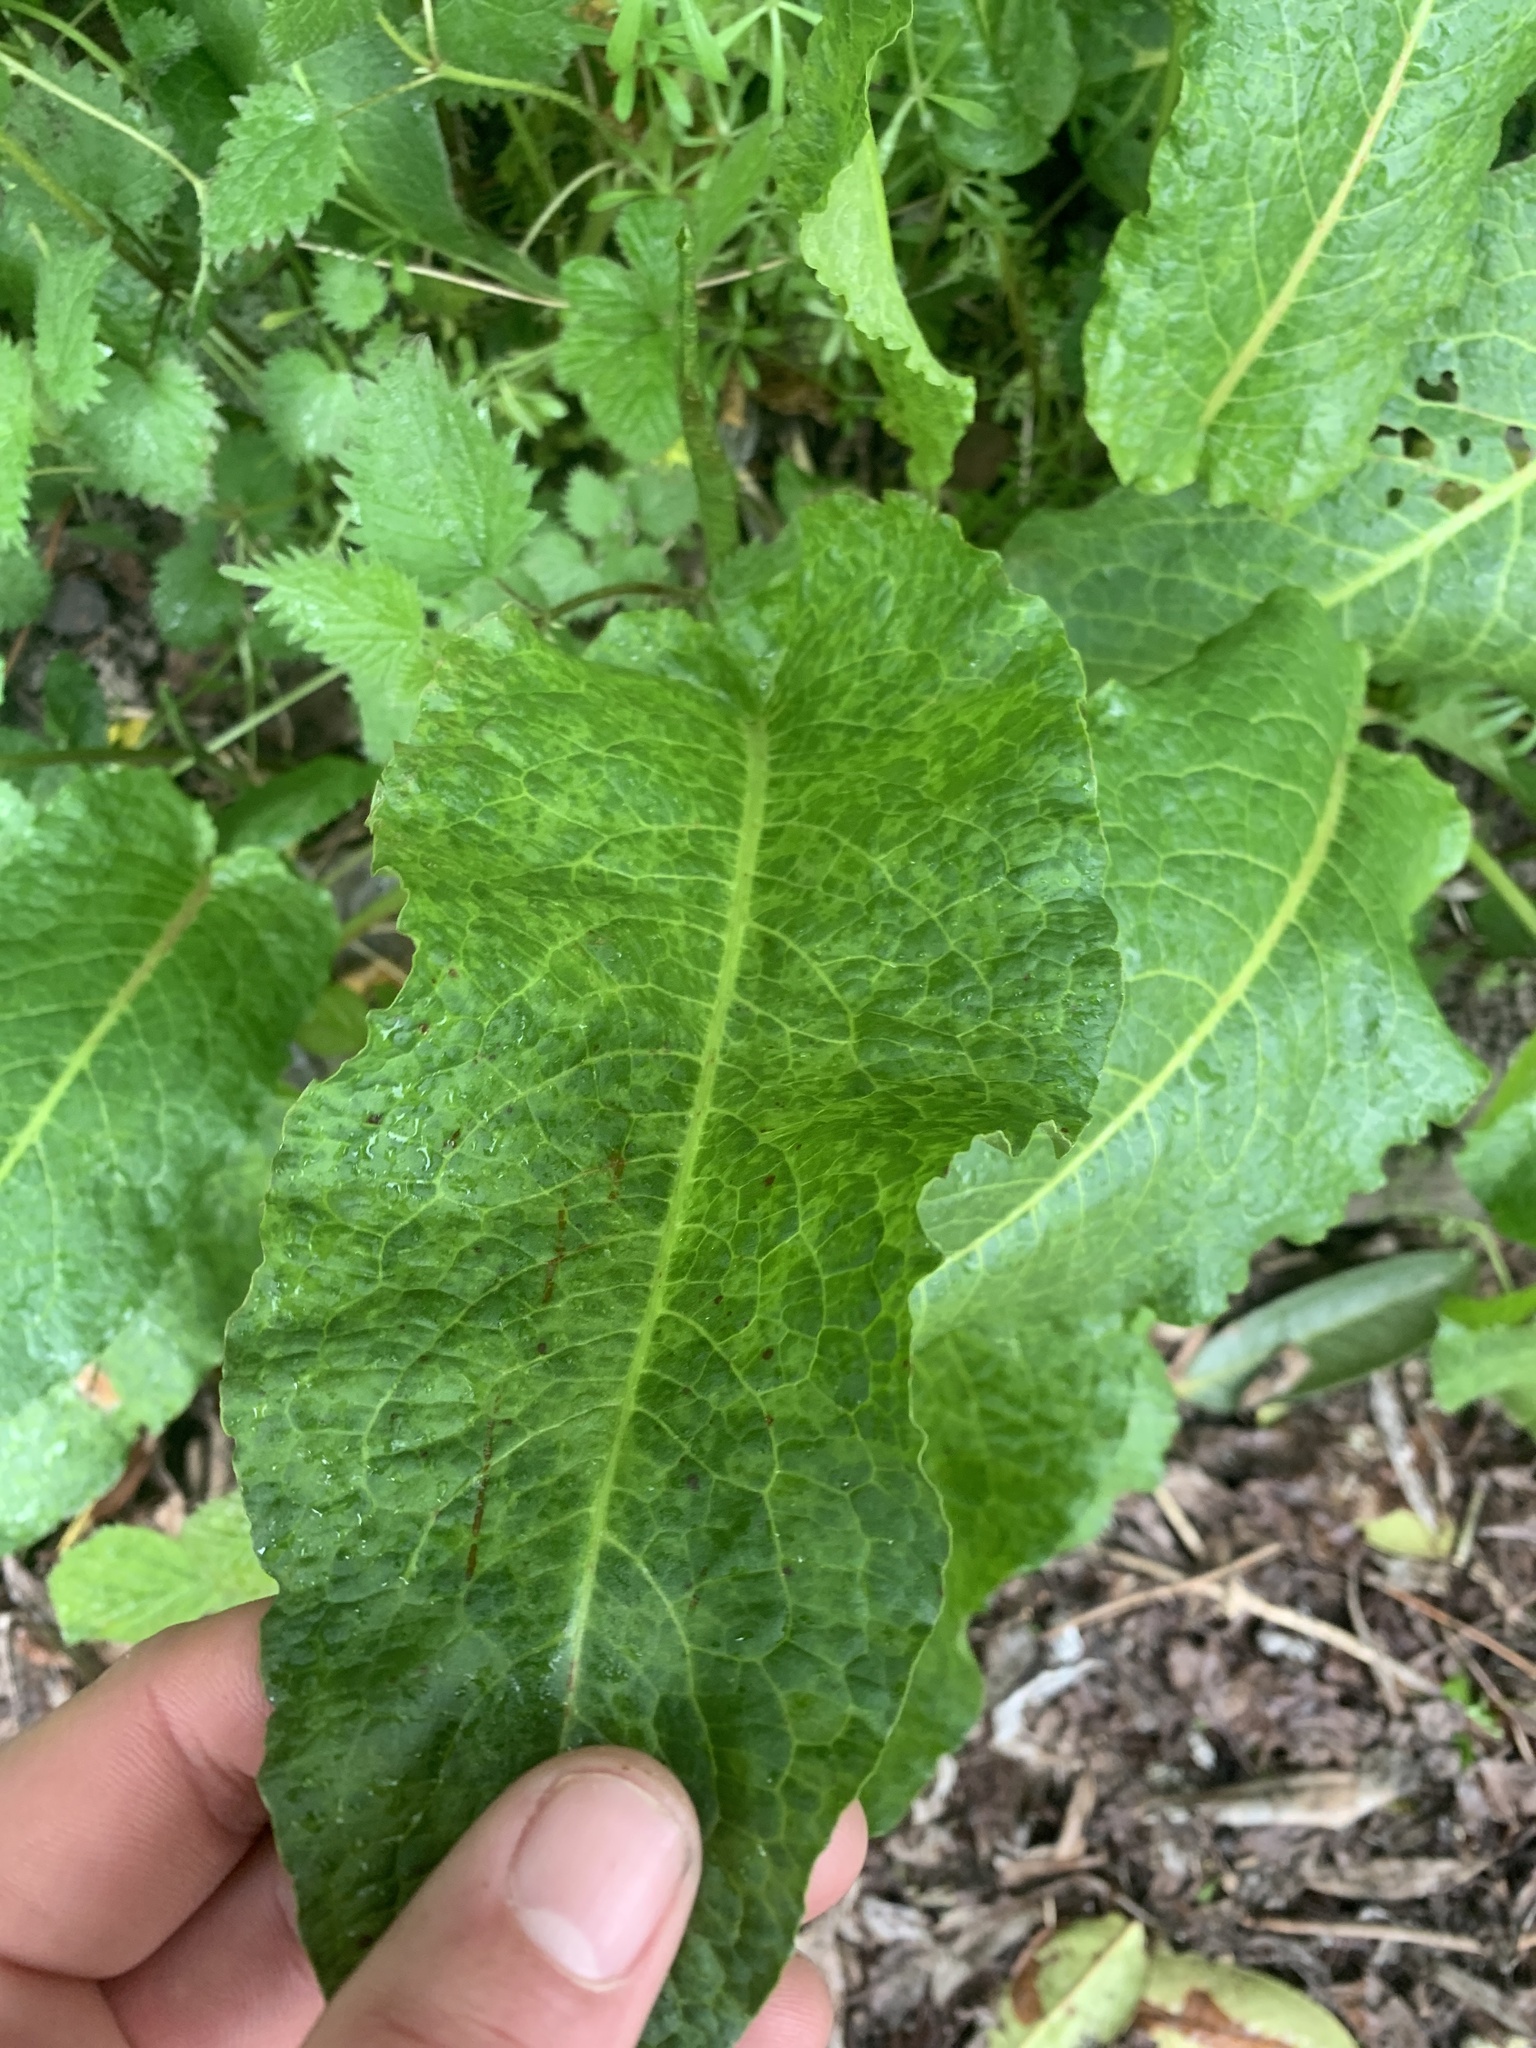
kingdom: Plantae
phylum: Tracheophyta
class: Magnoliopsida
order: Caryophyllales
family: Polygonaceae
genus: Rumex
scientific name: Rumex obtusifolius
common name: Bitter dock
